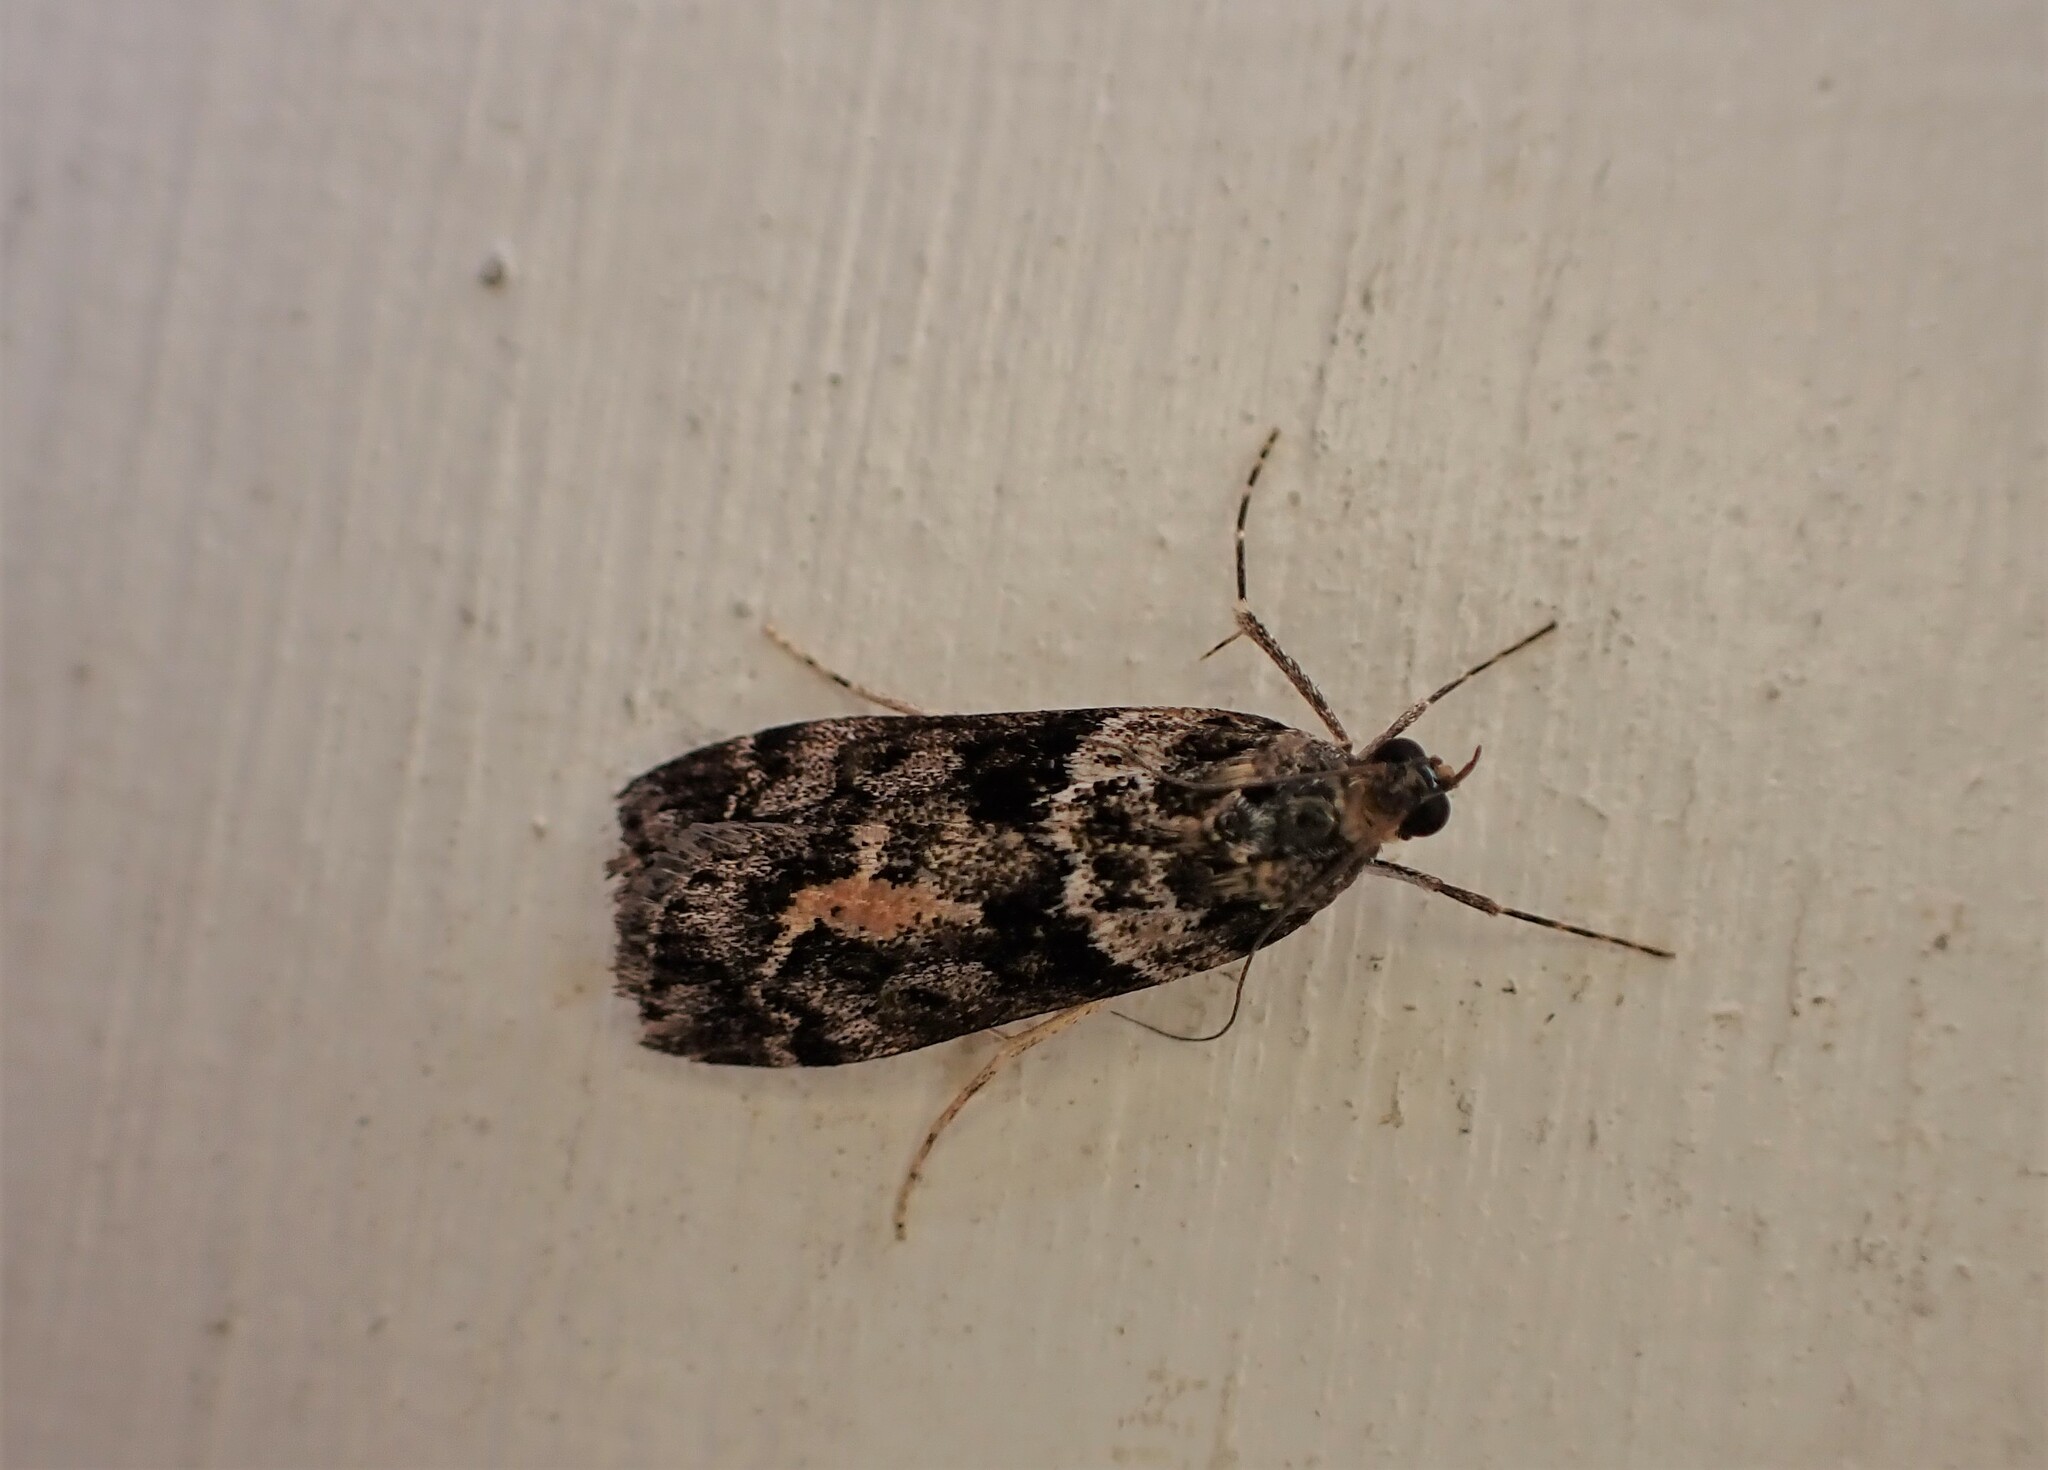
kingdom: Animalia
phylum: Arthropoda
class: Insecta
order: Lepidoptera
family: Crambidae
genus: Eudonia
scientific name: Eudonia submarginalis
